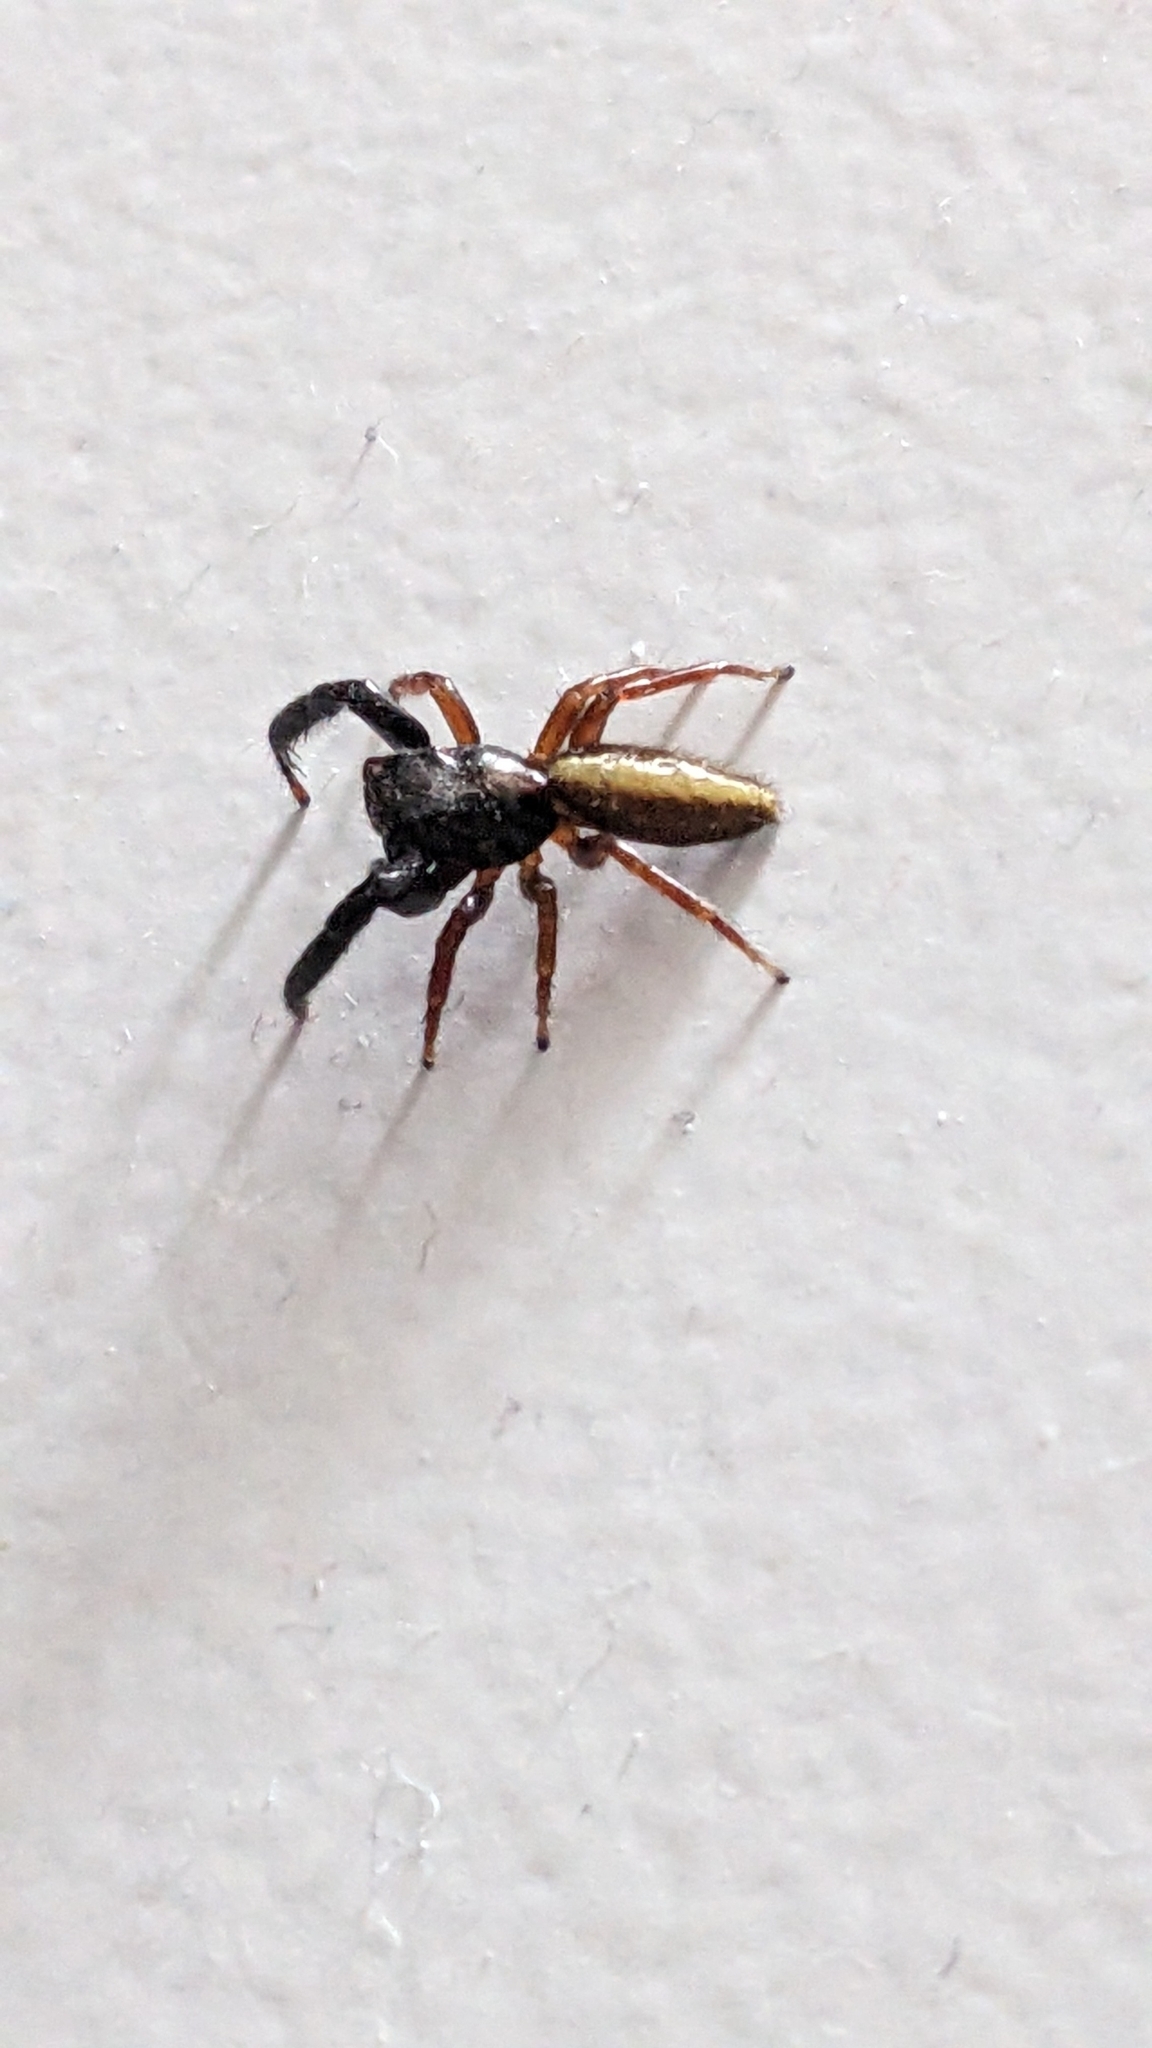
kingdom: Animalia
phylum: Arthropoda
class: Arachnida
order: Araneae
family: Salticidae
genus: Trite
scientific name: Trite planiceps
